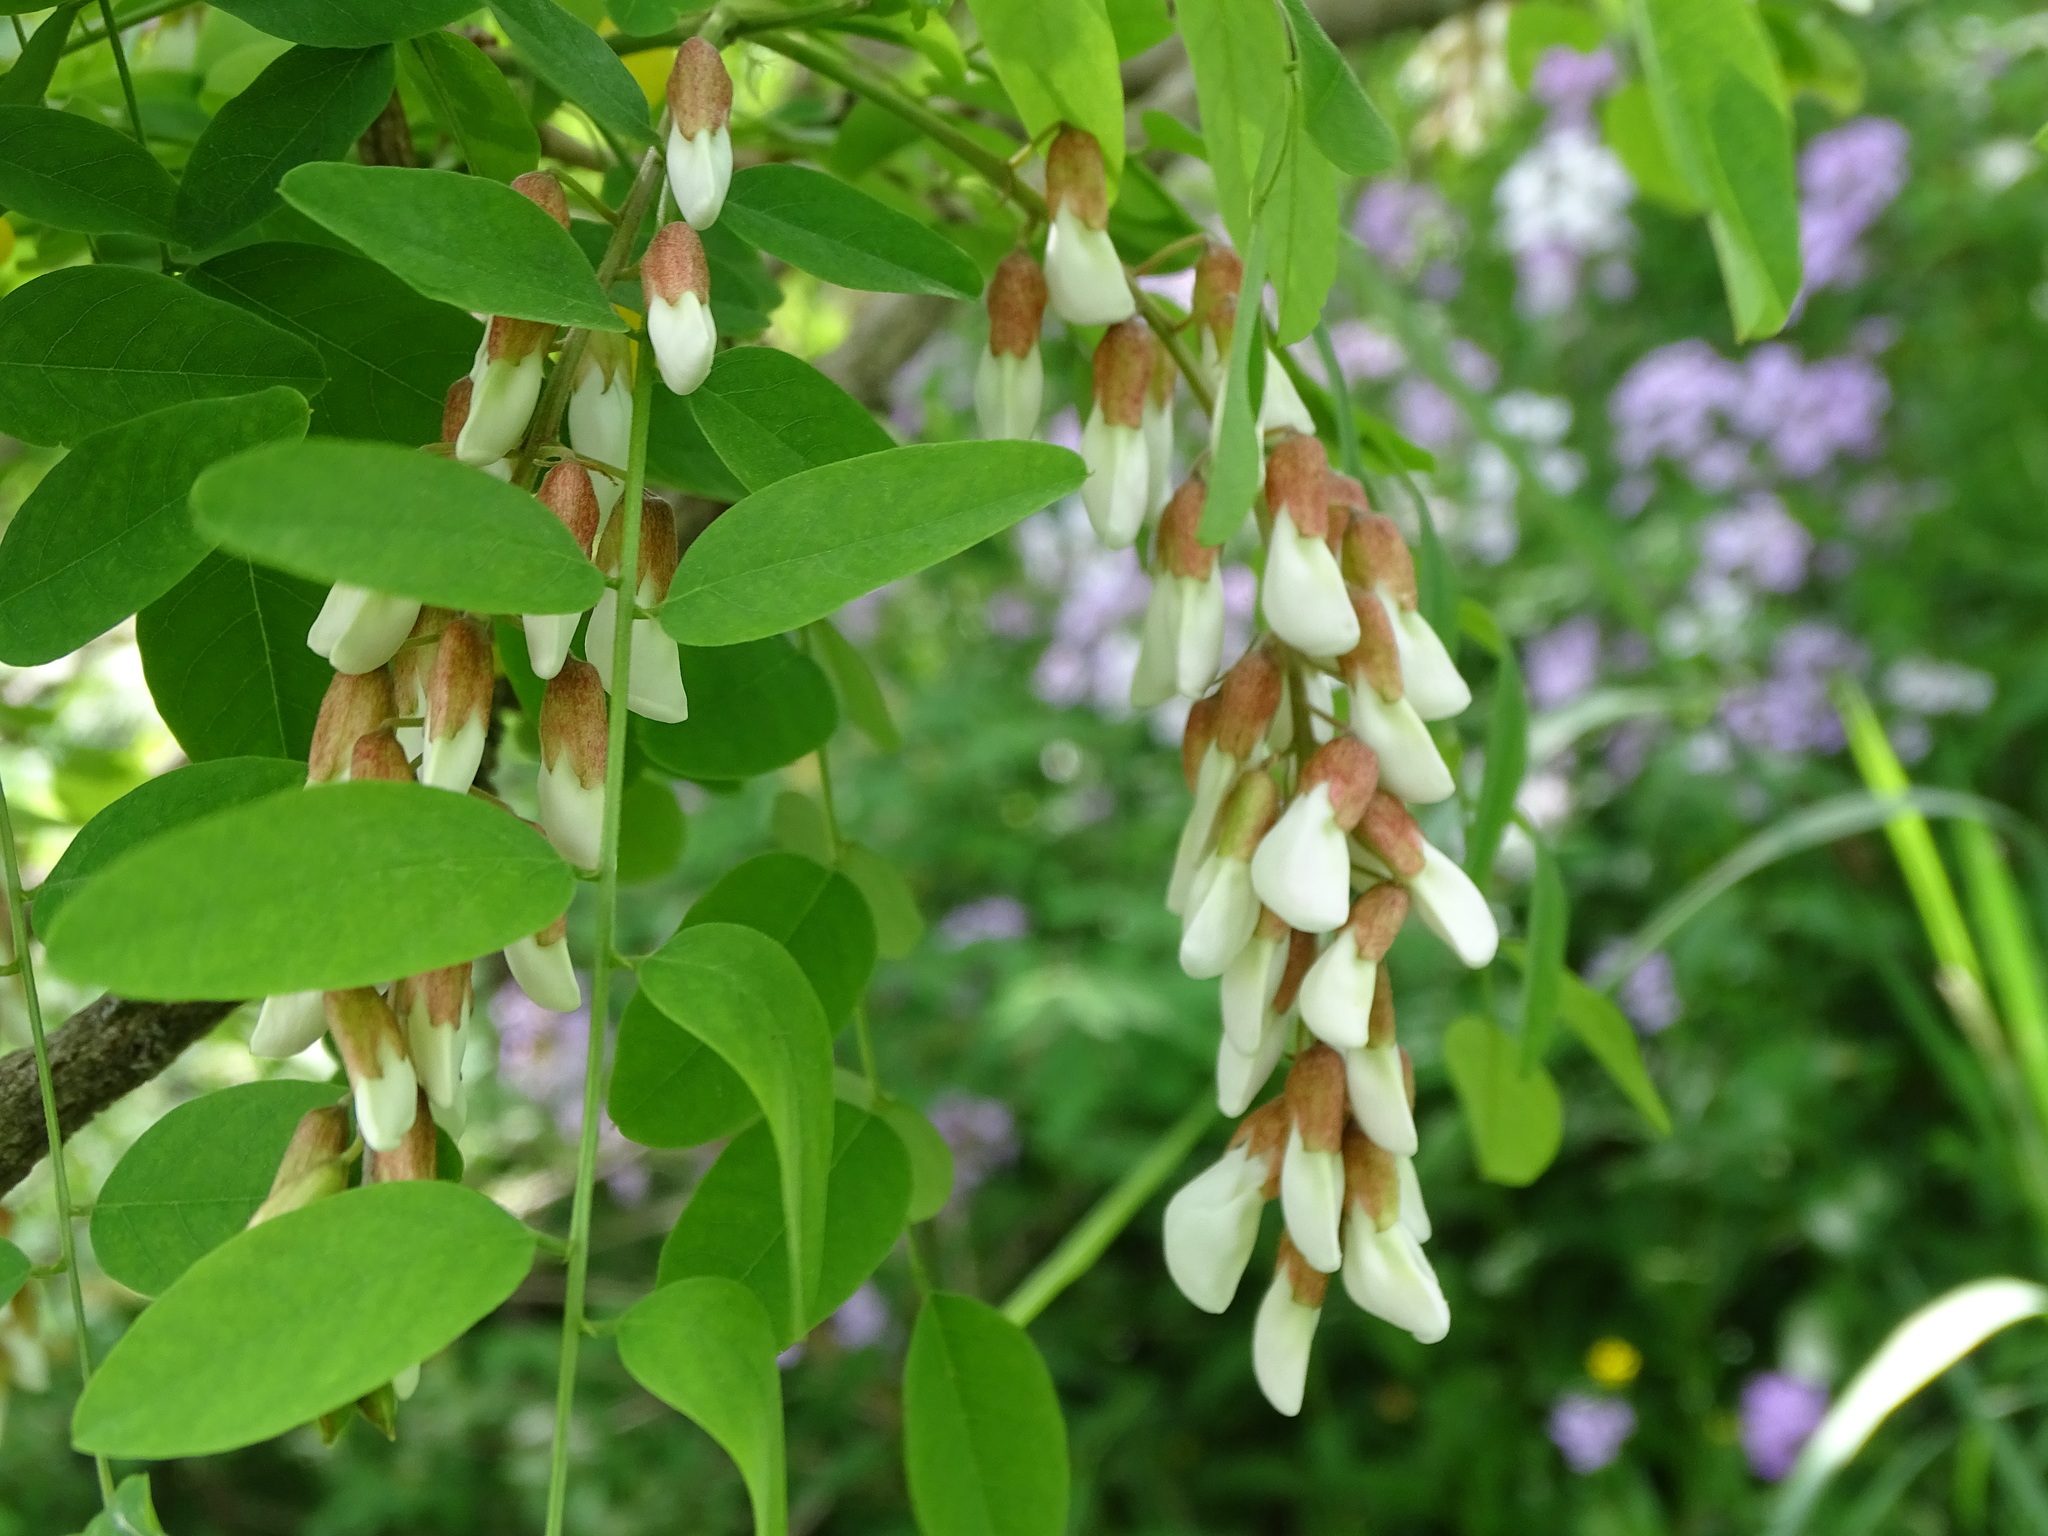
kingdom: Plantae
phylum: Tracheophyta
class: Magnoliopsida
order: Fabales
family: Fabaceae
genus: Robinia
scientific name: Robinia pseudoacacia
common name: Black locust
